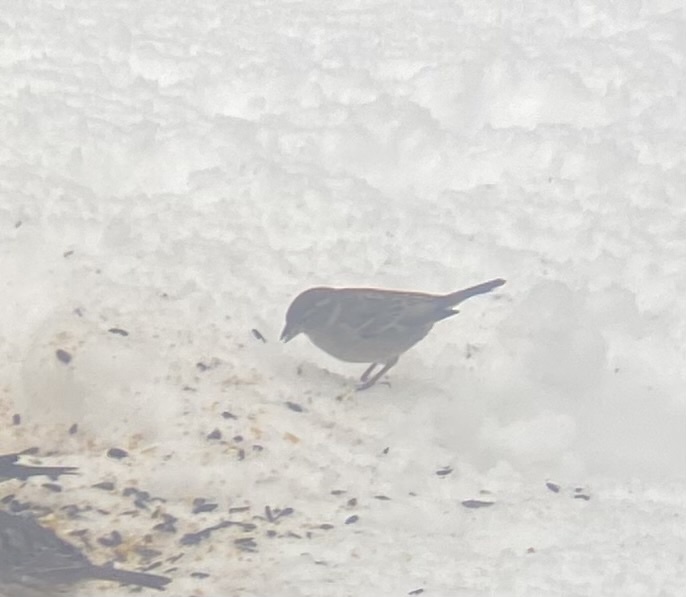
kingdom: Animalia
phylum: Chordata
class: Aves
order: Passeriformes
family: Passeridae
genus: Passer
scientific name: Passer domesticus
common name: House sparrow
